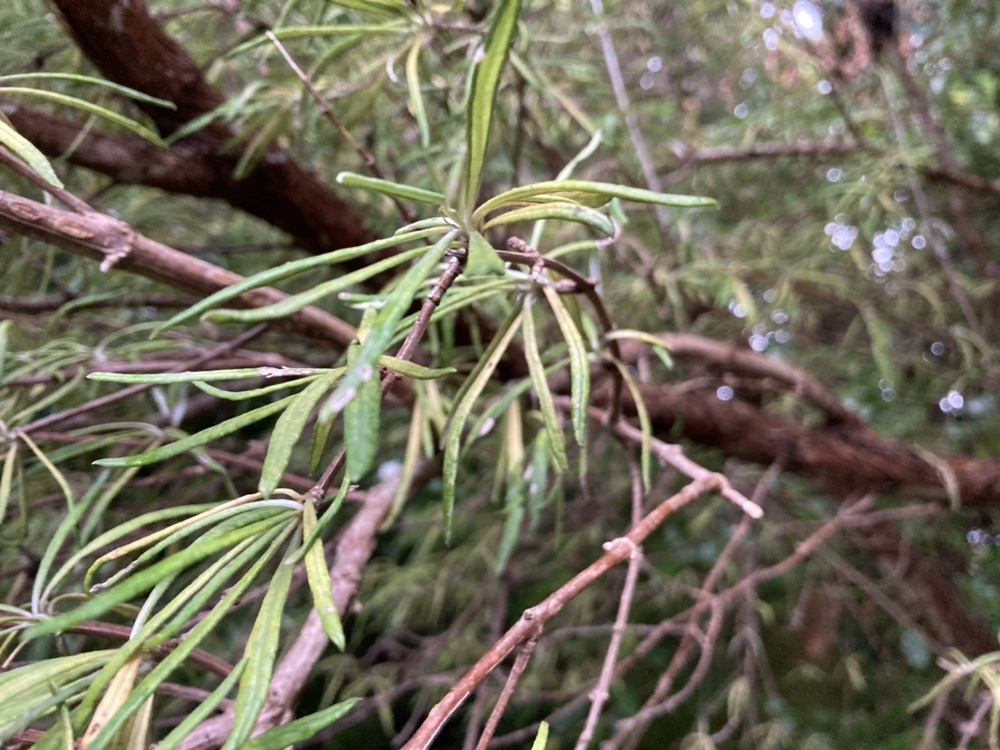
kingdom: Plantae
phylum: Tracheophyta
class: Magnoliopsida
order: Asterales
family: Asteraceae
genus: Olearia
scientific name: Olearia lineata
